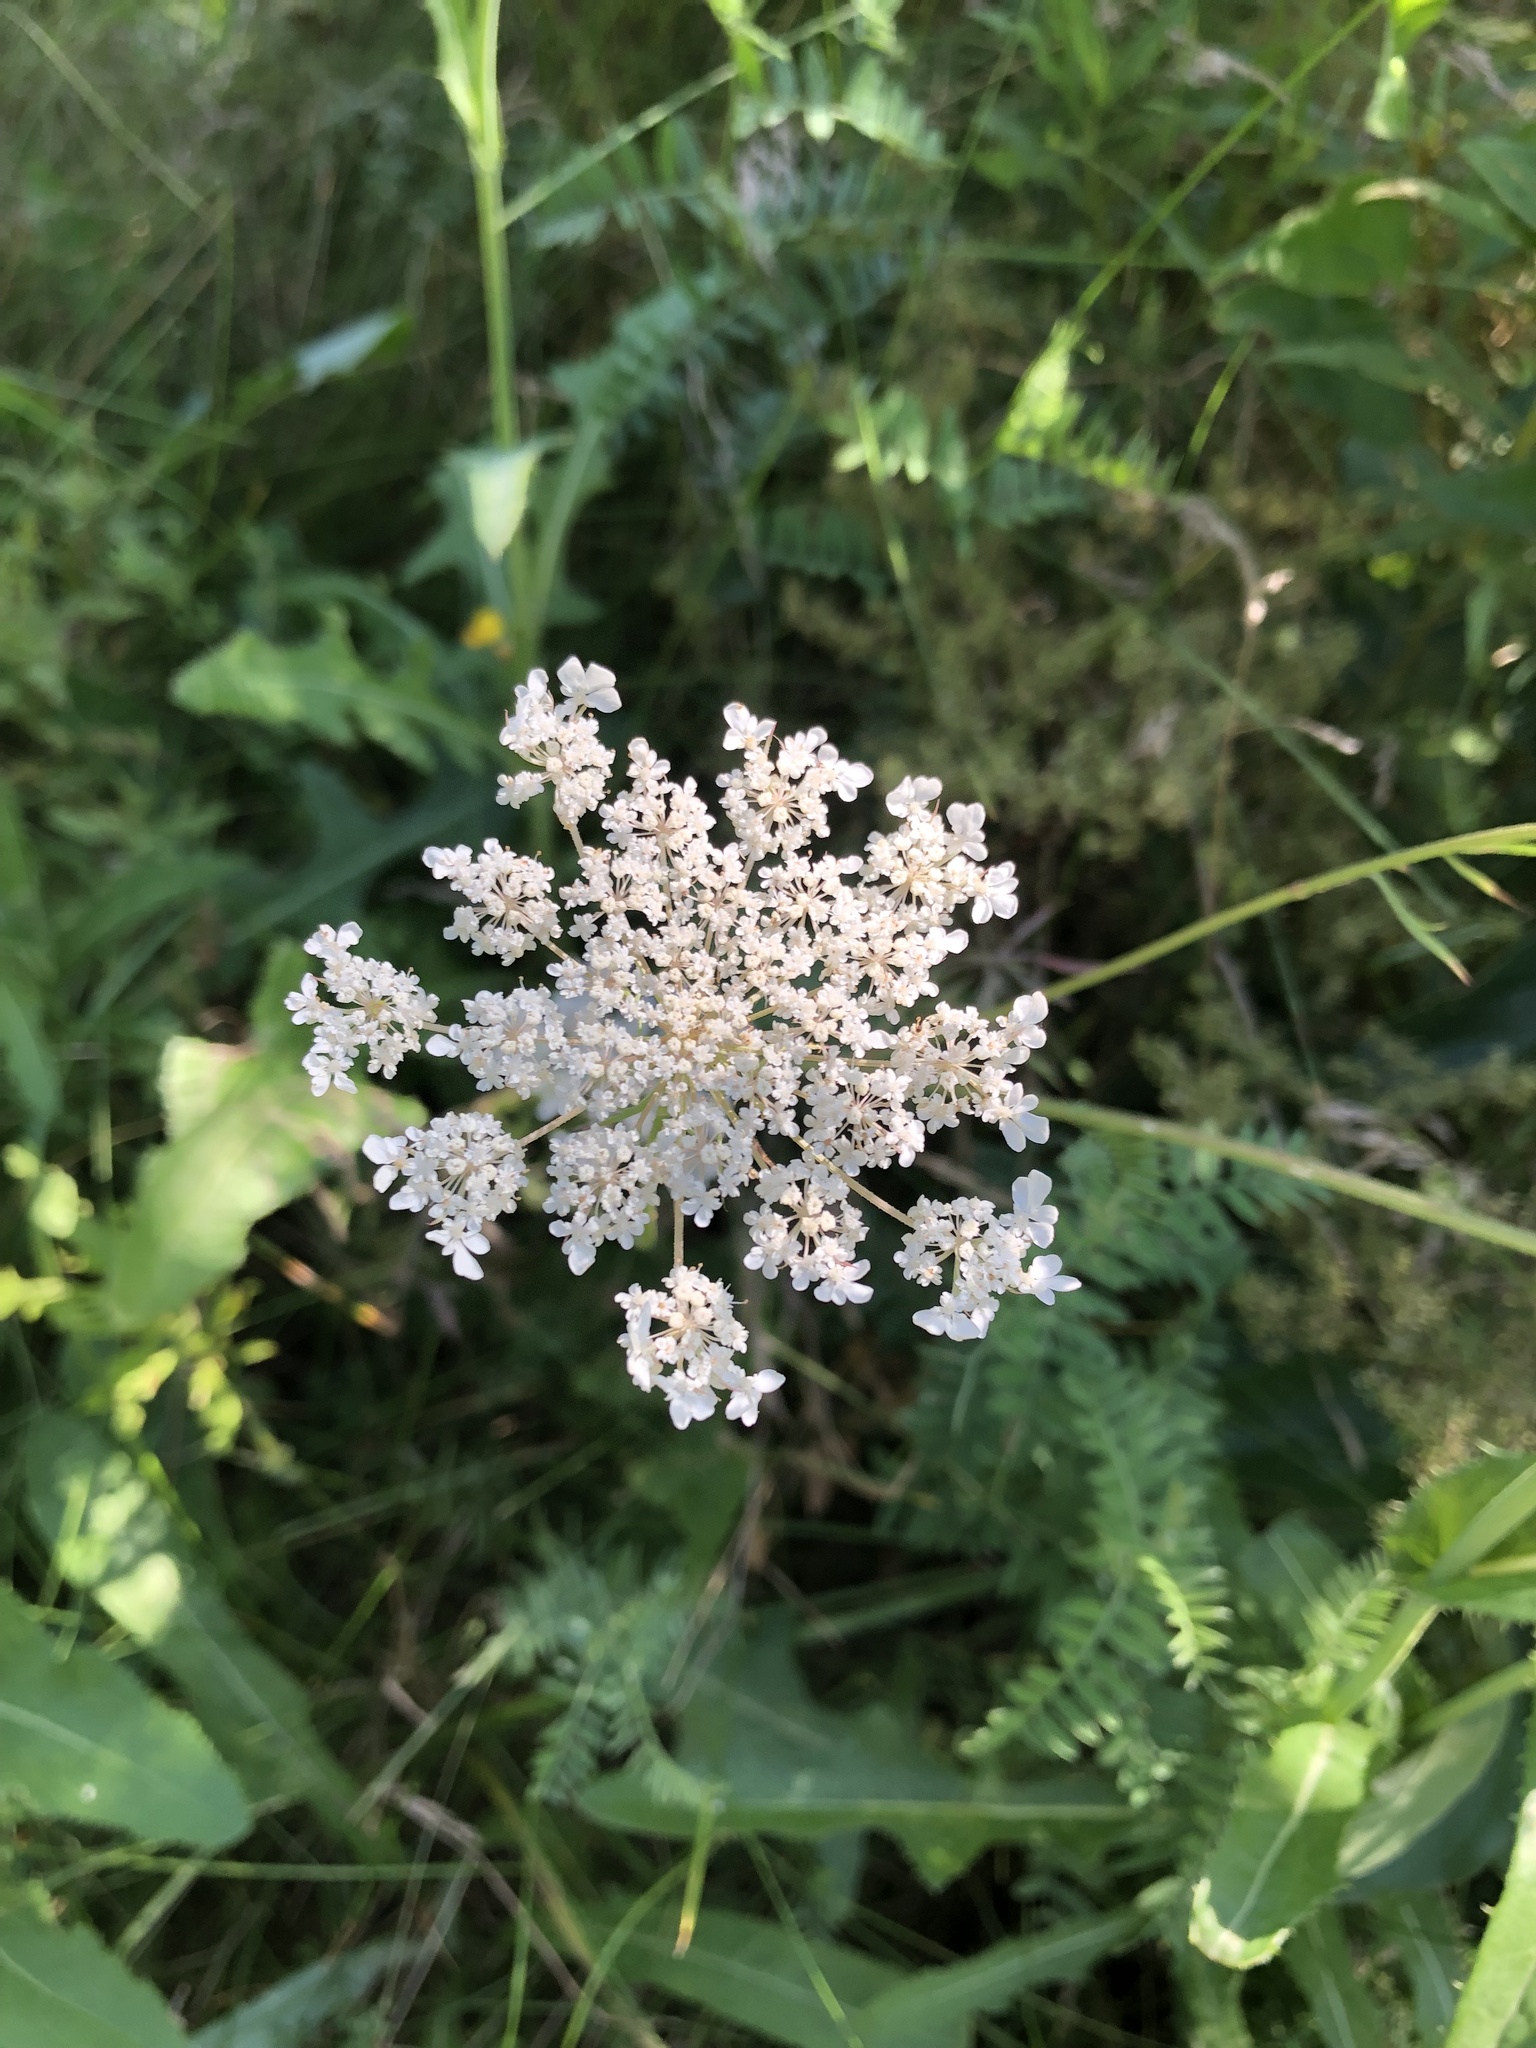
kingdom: Plantae
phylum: Tracheophyta
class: Magnoliopsida
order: Apiales
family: Apiaceae
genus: Daucus
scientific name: Daucus carota
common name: Wild carrot
